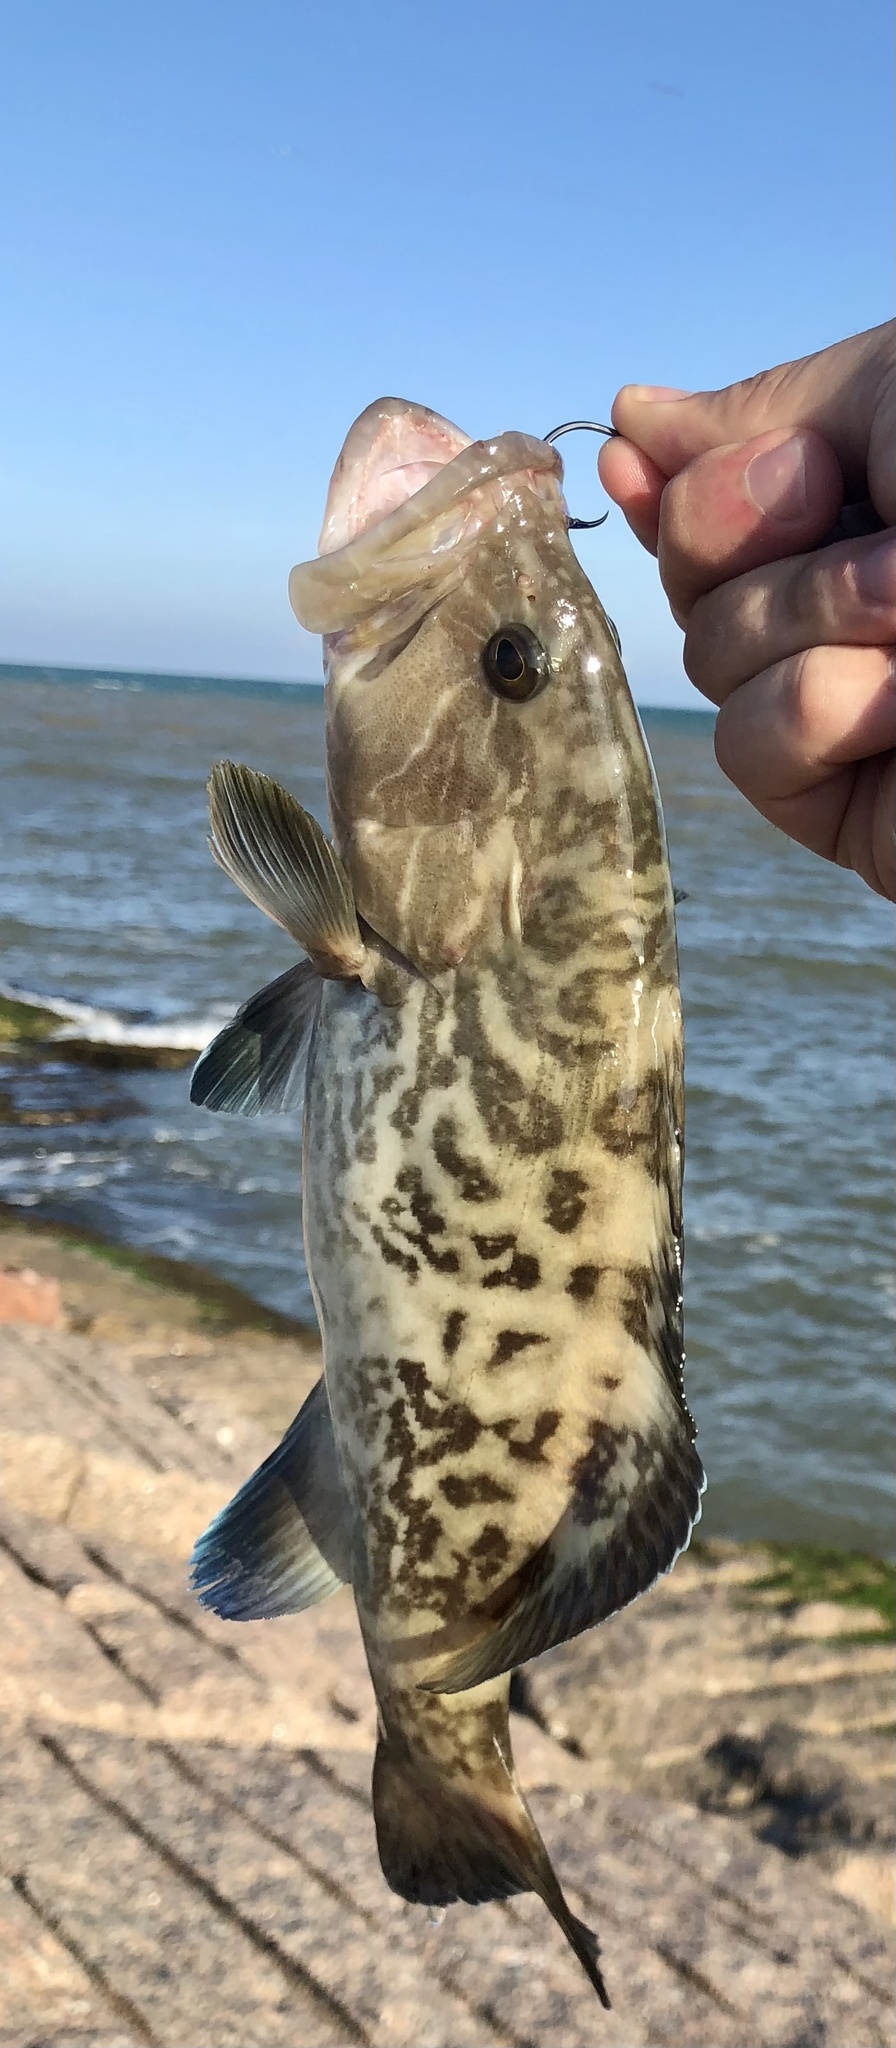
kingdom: Animalia
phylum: Chordata
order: Perciformes
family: Serranidae
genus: Mycteroperca
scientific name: Mycteroperca microlepis
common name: Gag
